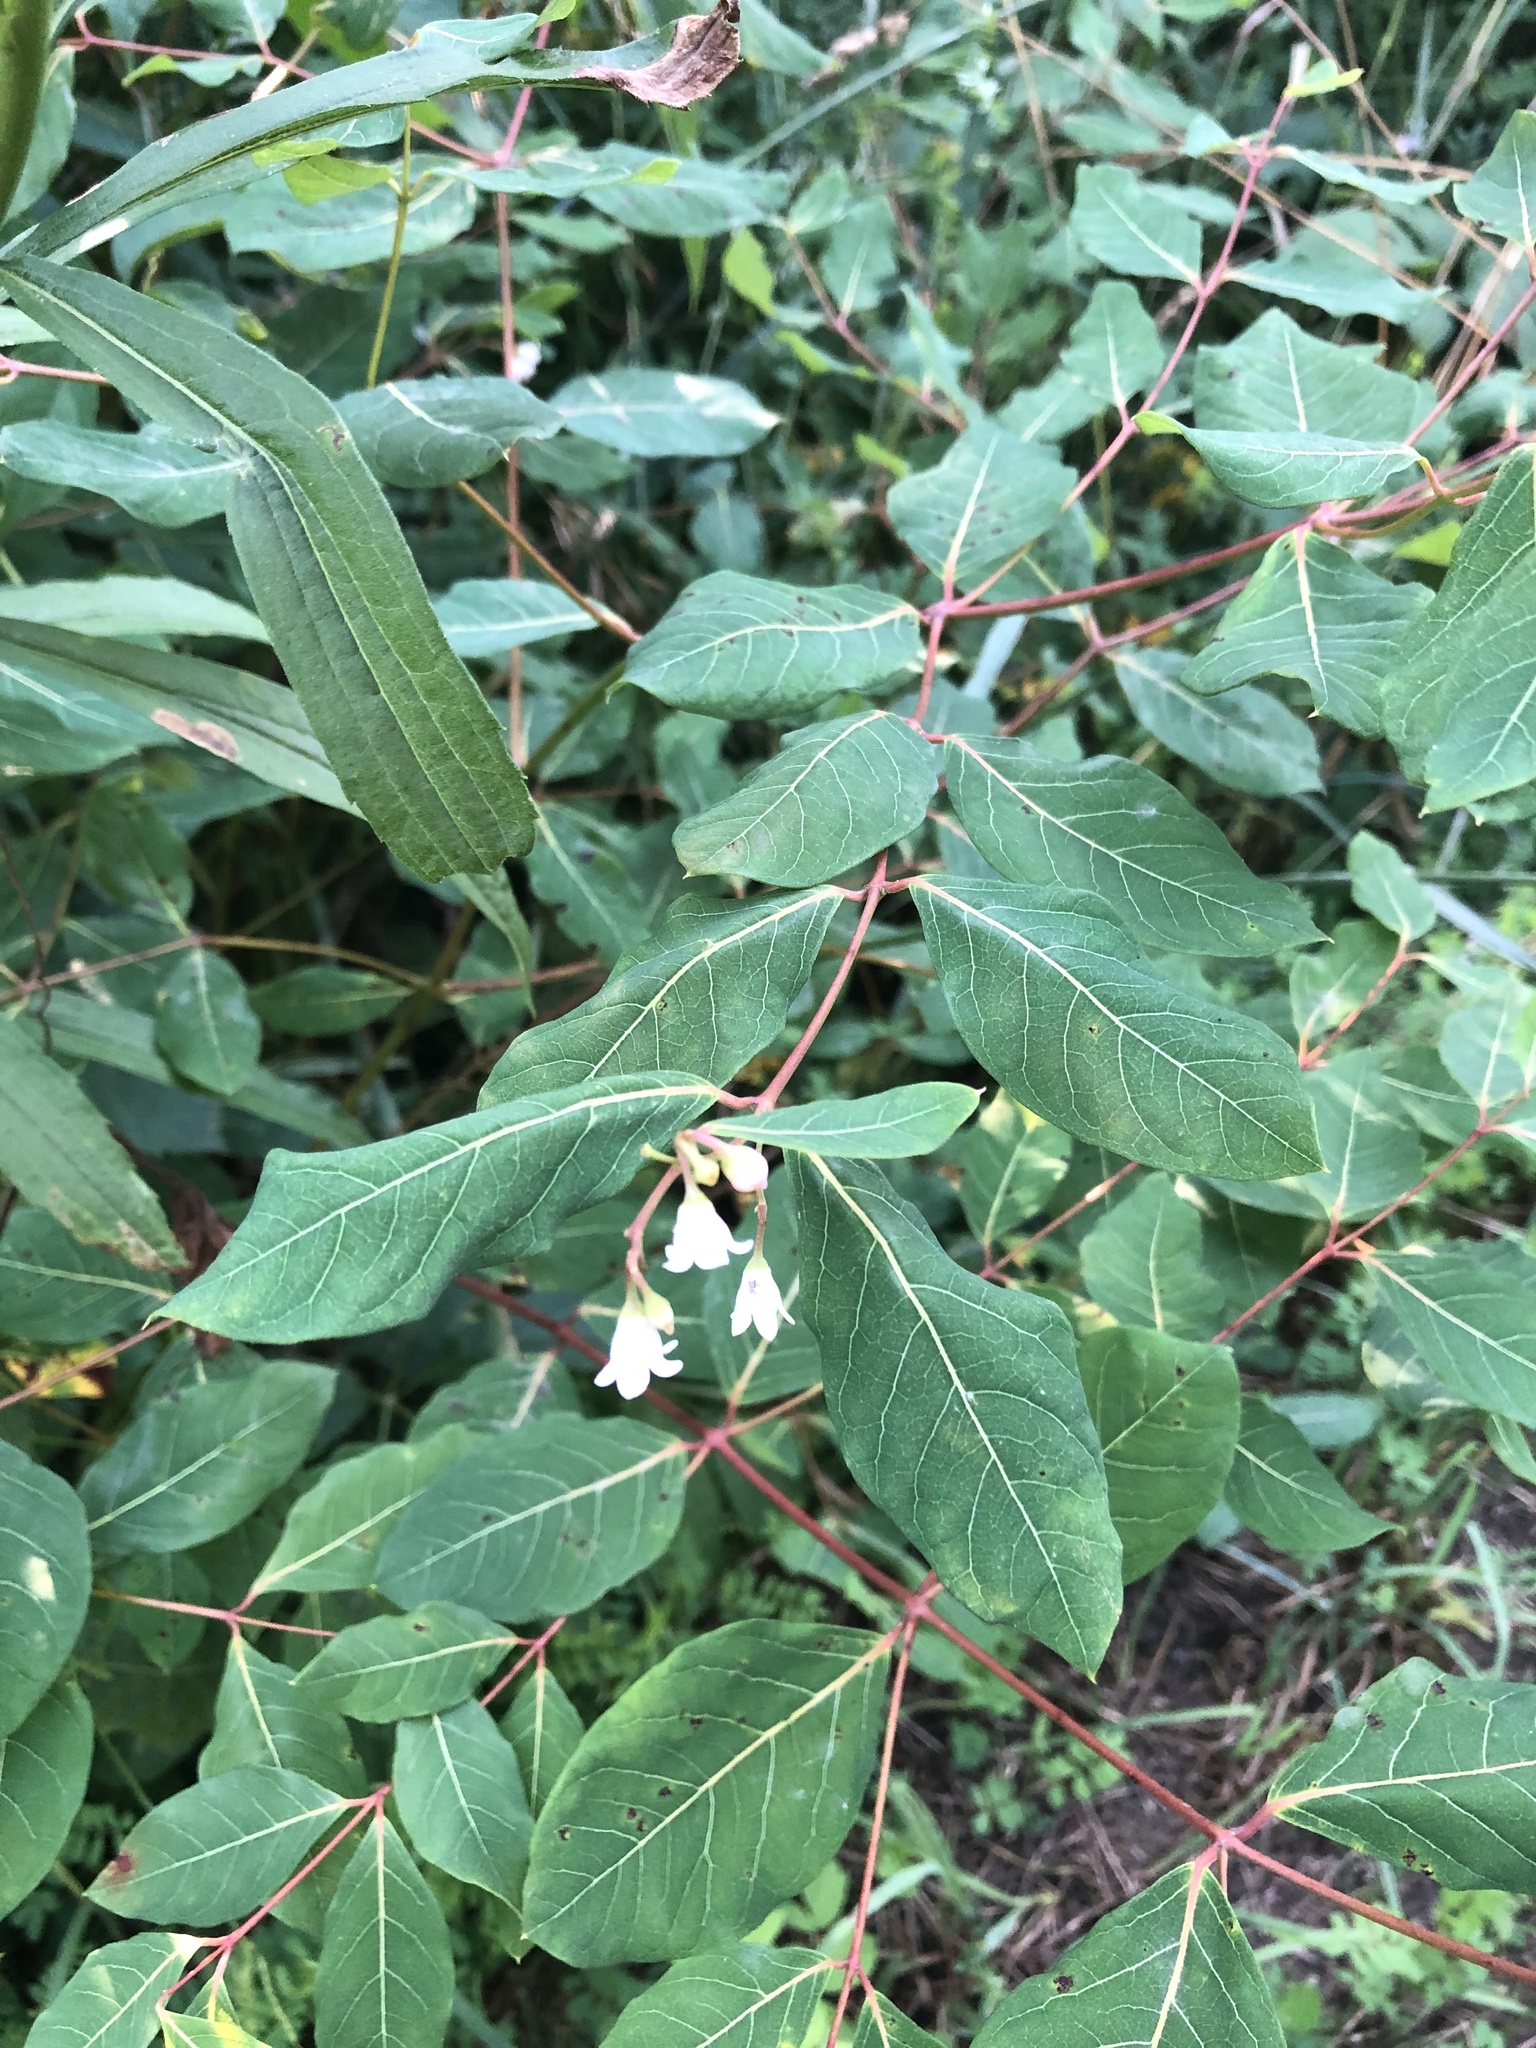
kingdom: Plantae
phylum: Tracheophyta
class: Magnoliopsida
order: Gentianales
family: Apocynaceae
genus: Apocynum
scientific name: Apocynum androsaemifolium
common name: Spreading dogbane
